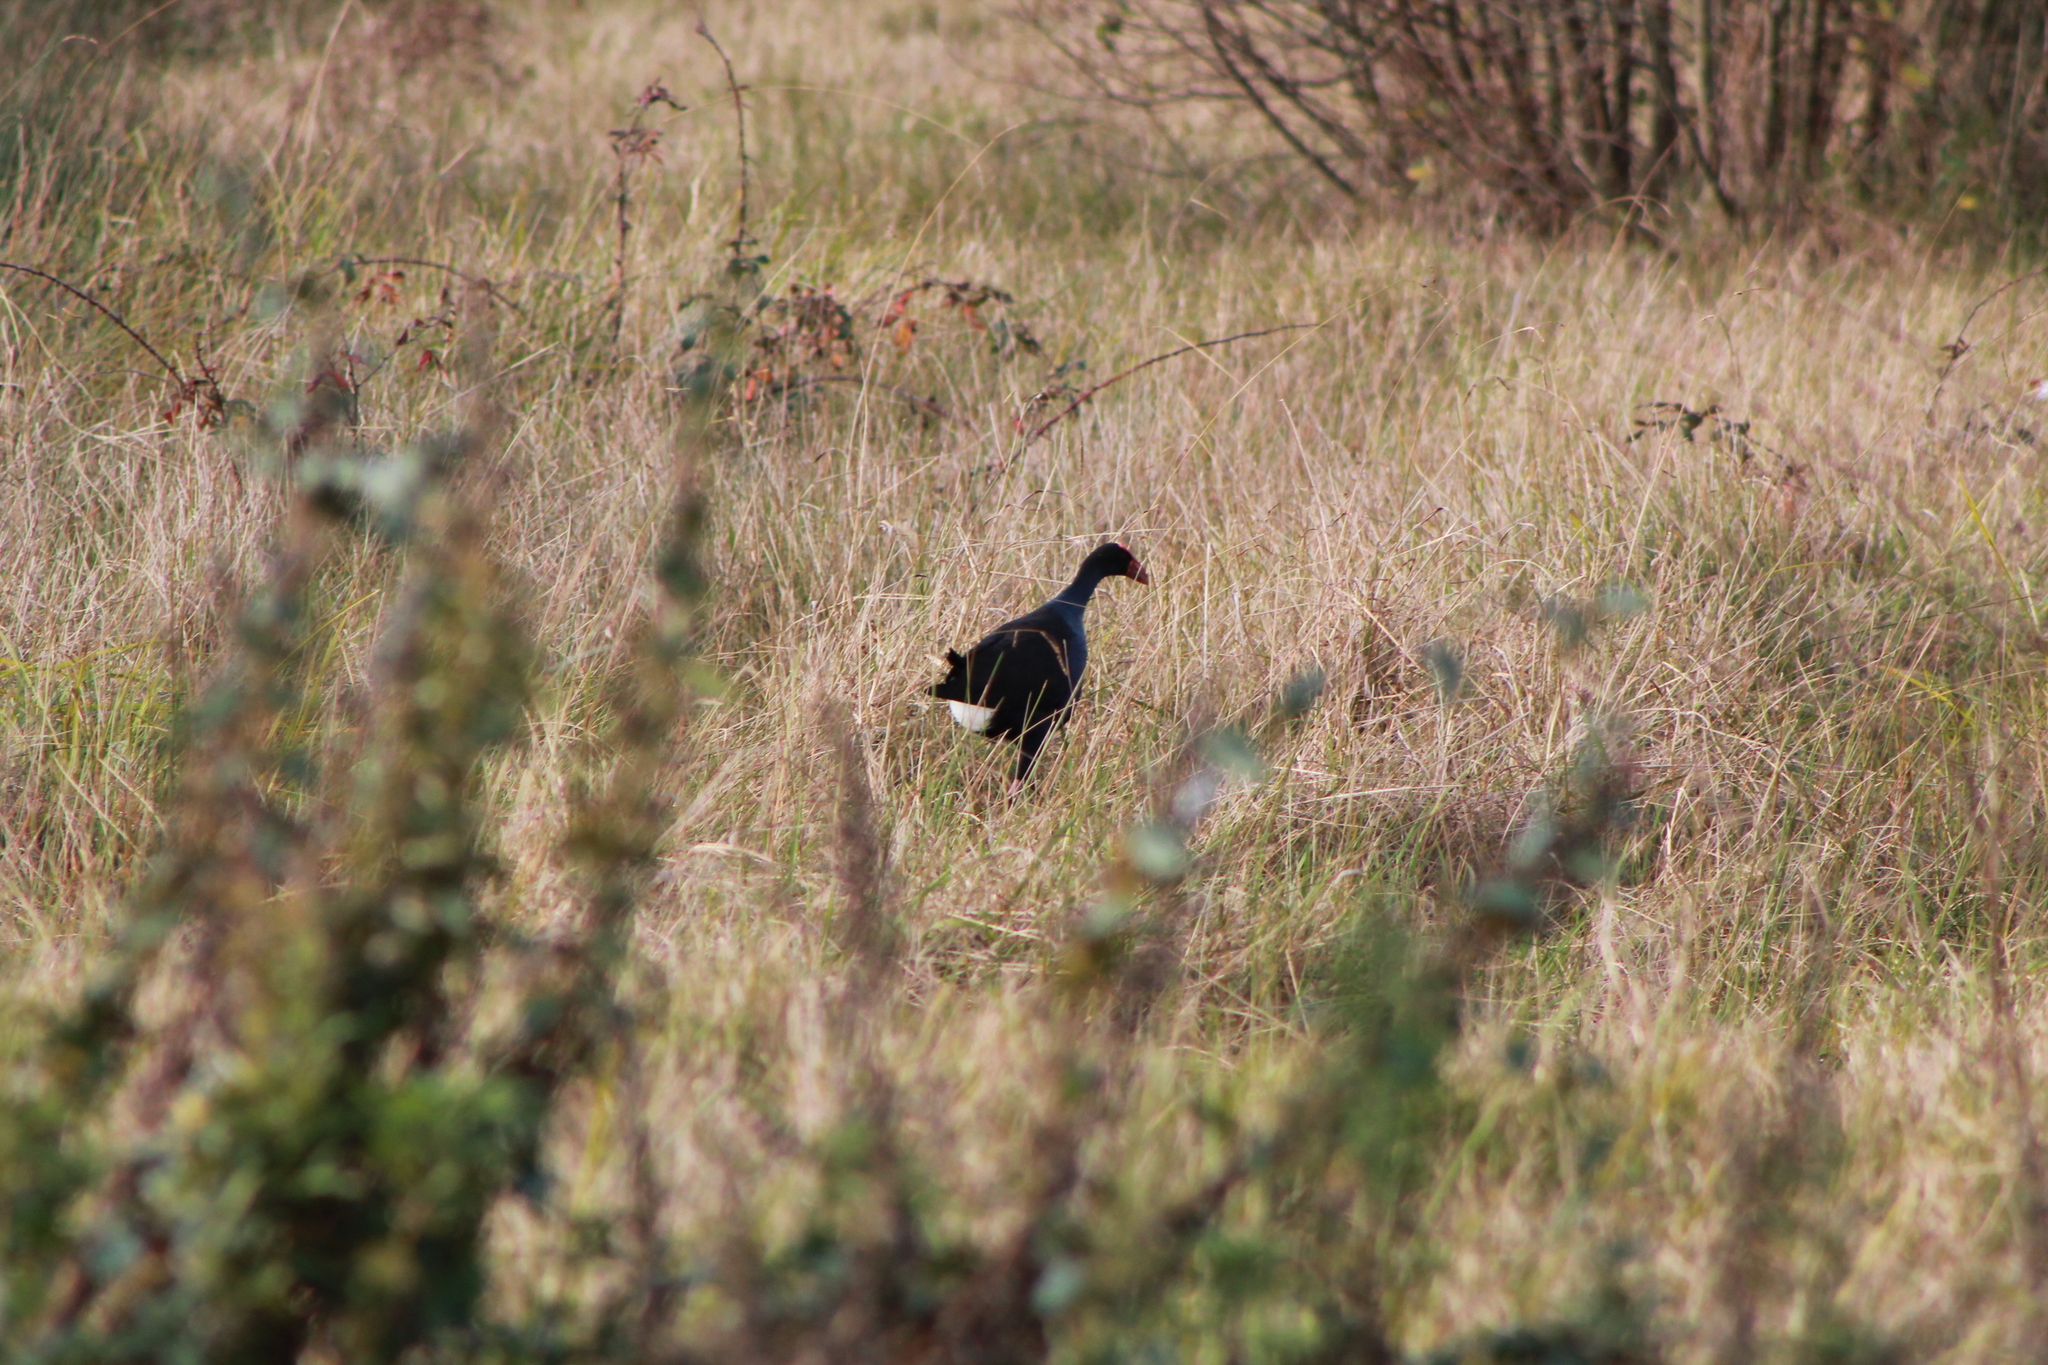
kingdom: Animalia
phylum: Chordata
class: Aves
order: Gruiformes
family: Rallidae
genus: Porphyrio
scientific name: Porphyrio melanotus
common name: Australasian swamphen
